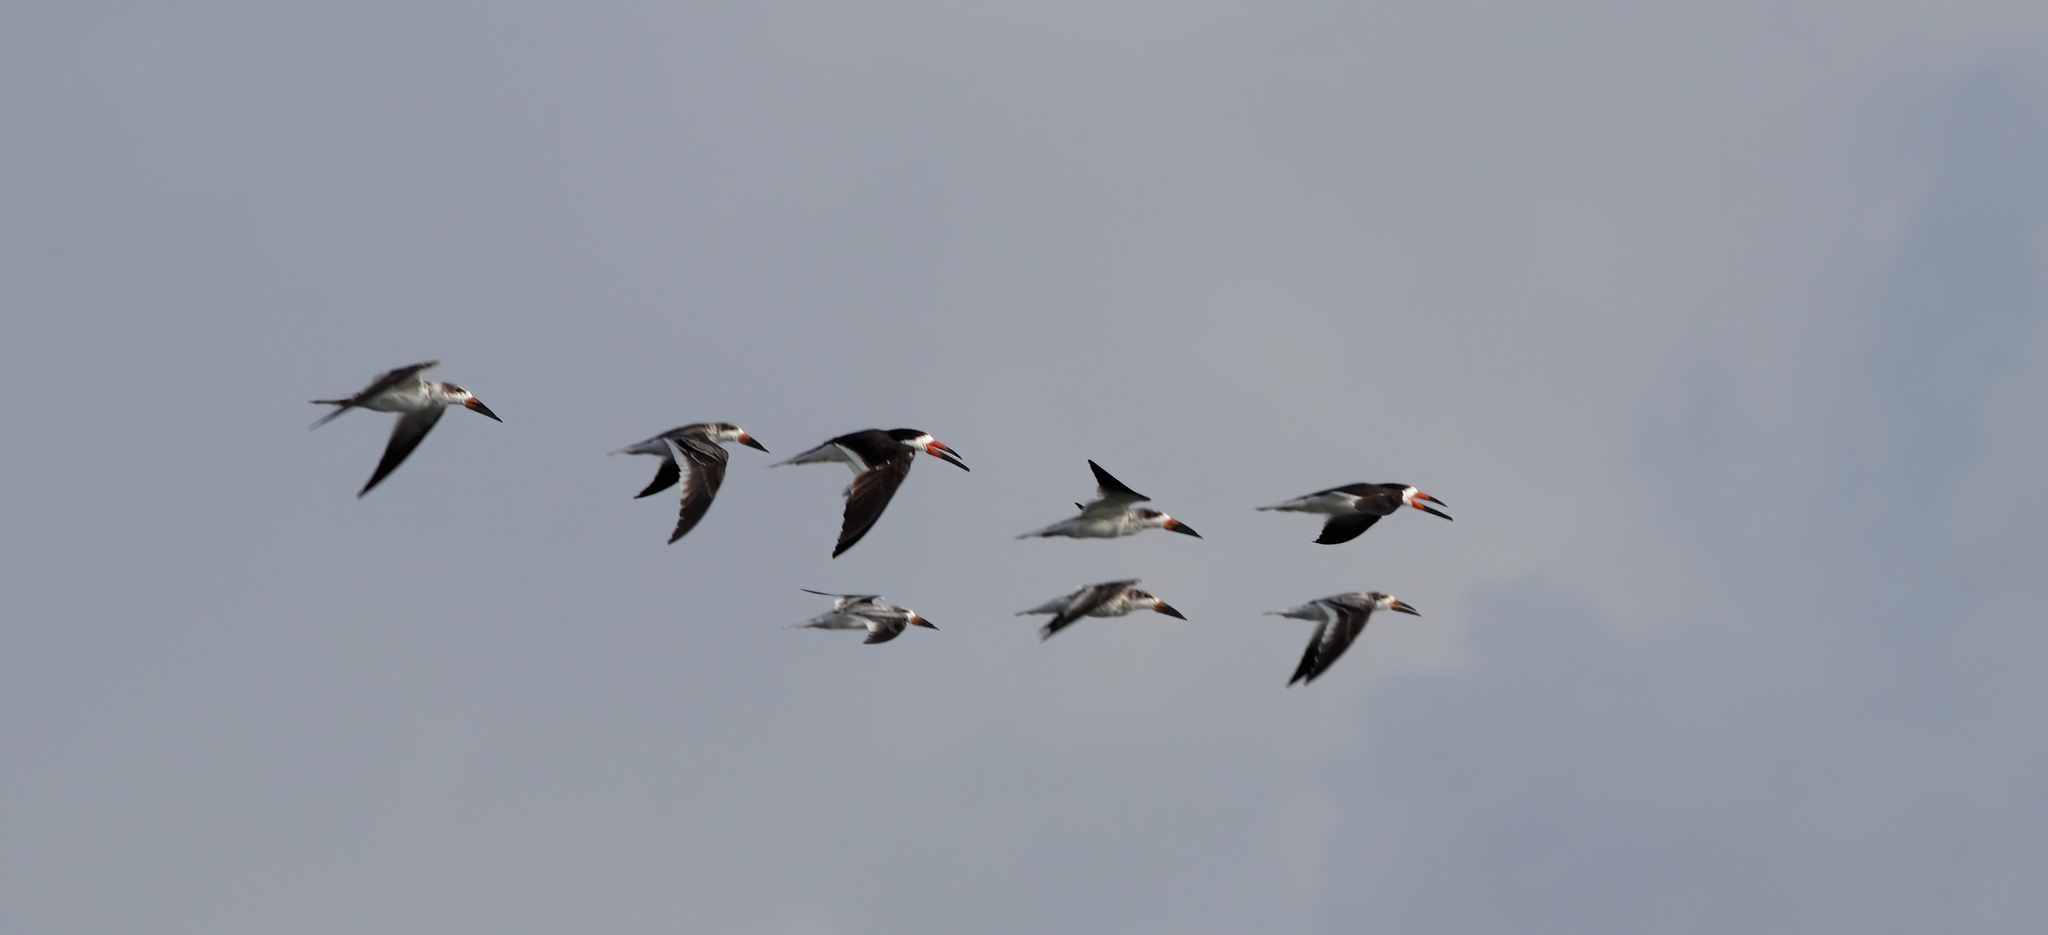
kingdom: Animalia
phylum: Chordata
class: Aves
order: Charadriiformes
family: Laridae
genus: Rynchops
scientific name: Rynchops niger
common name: Black skimmer
